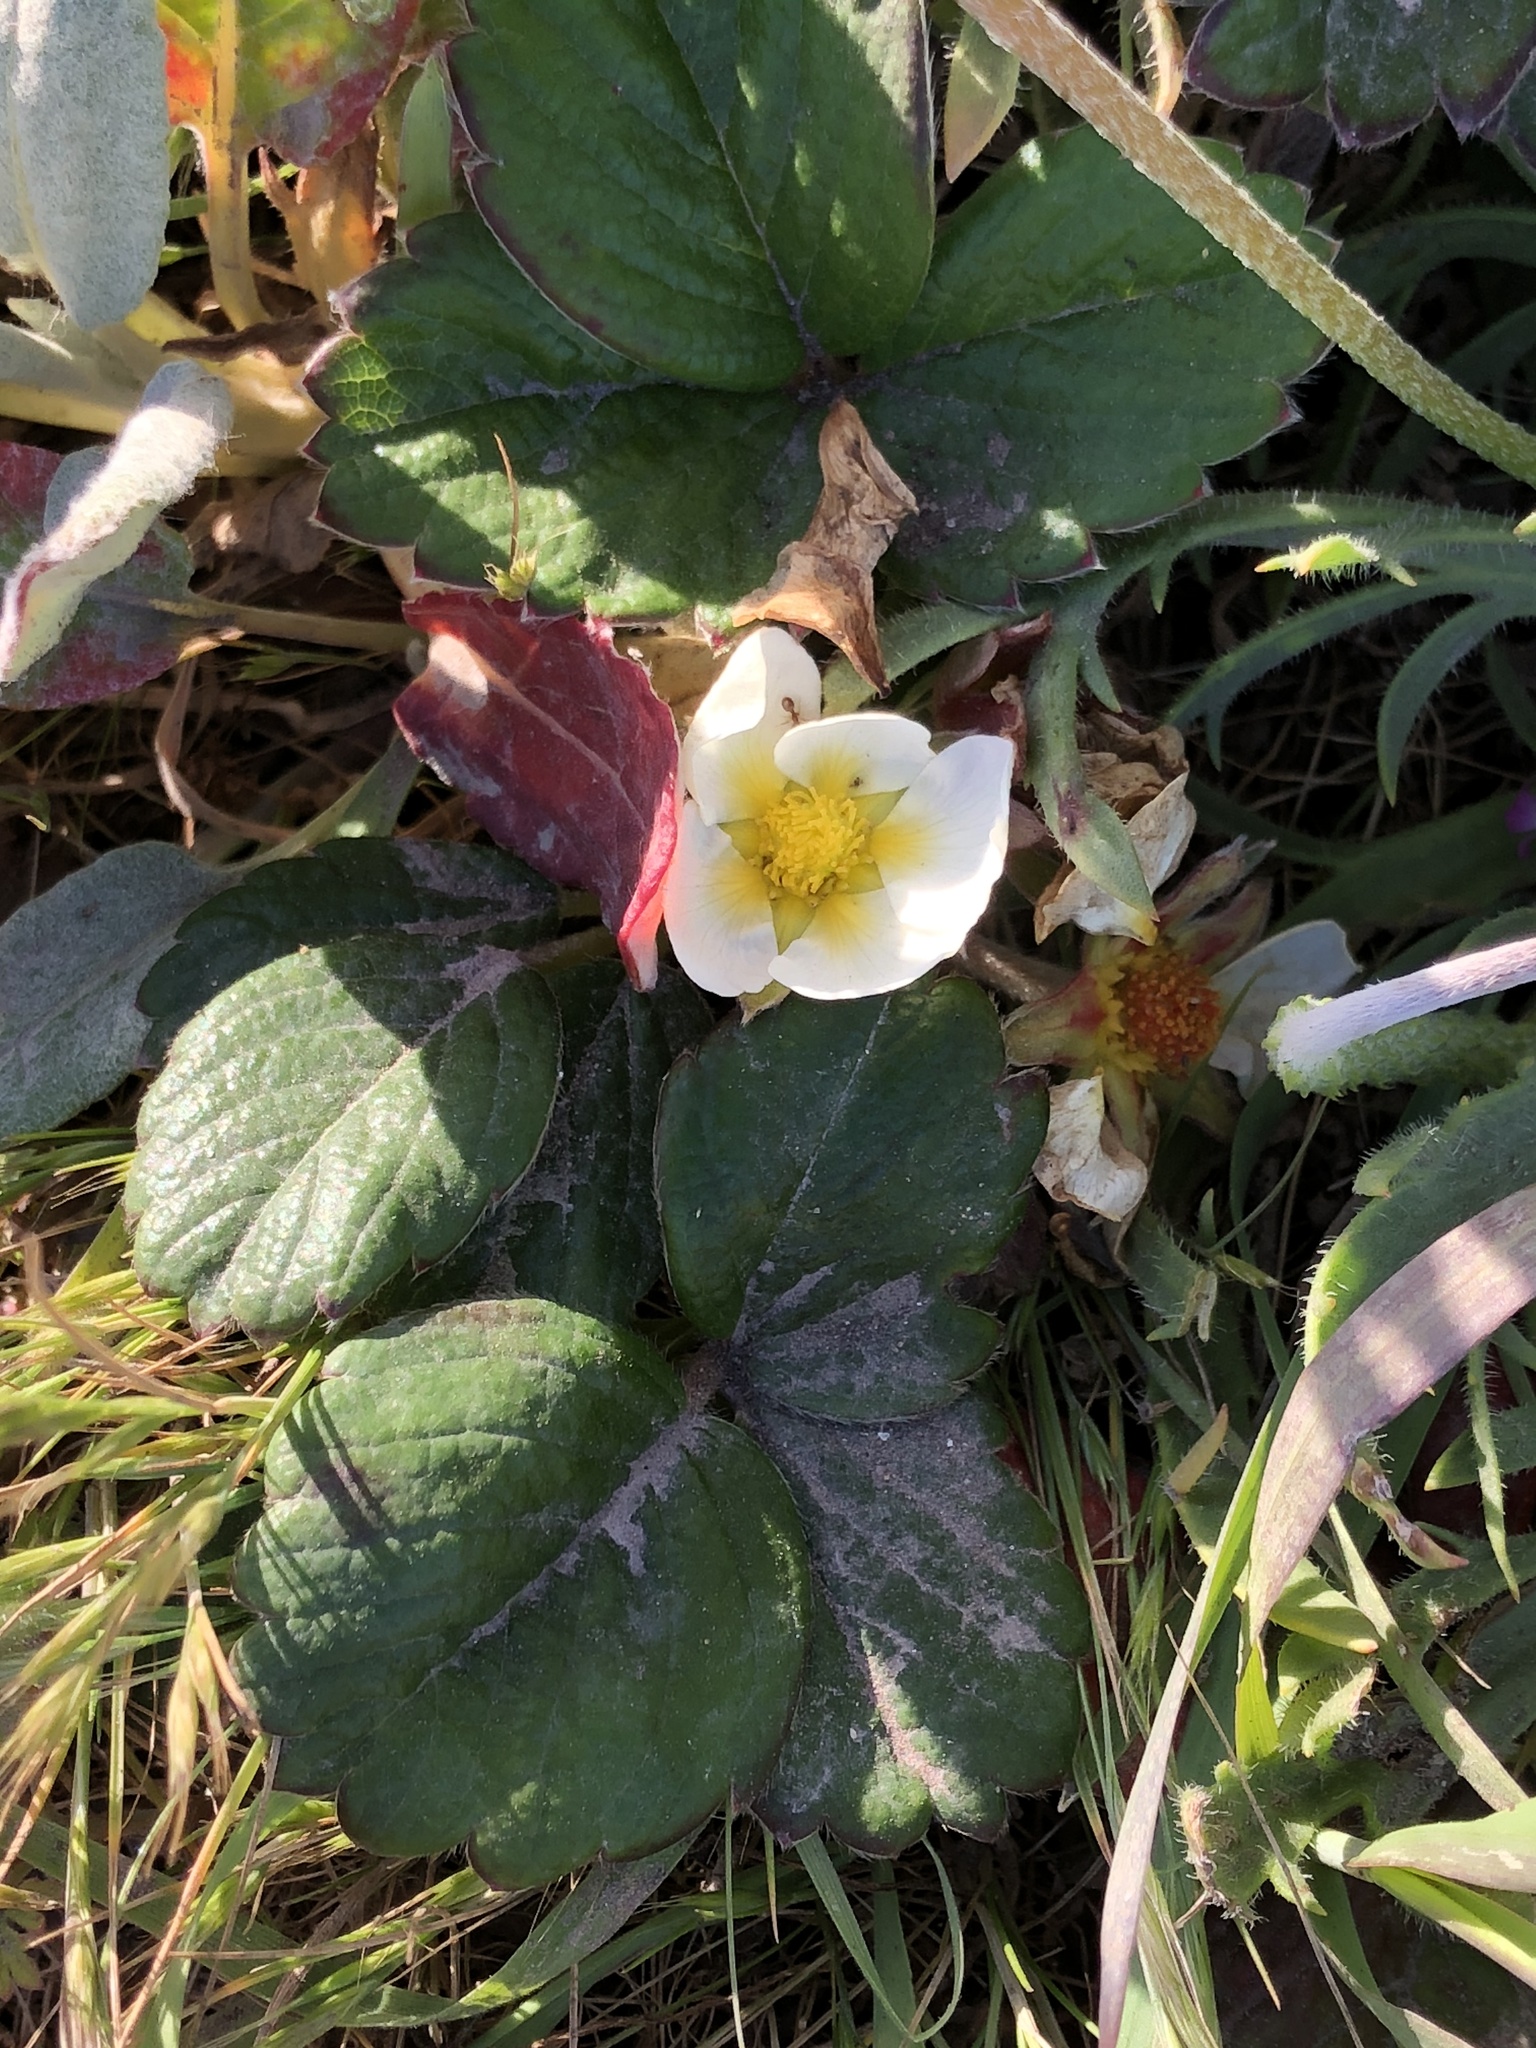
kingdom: Plantae
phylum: Tracheophyta
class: Magnoliopsida
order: Rosales
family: Rosaceae
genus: Fragaria
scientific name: Fragaria chiloensis
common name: Beach strawberry
